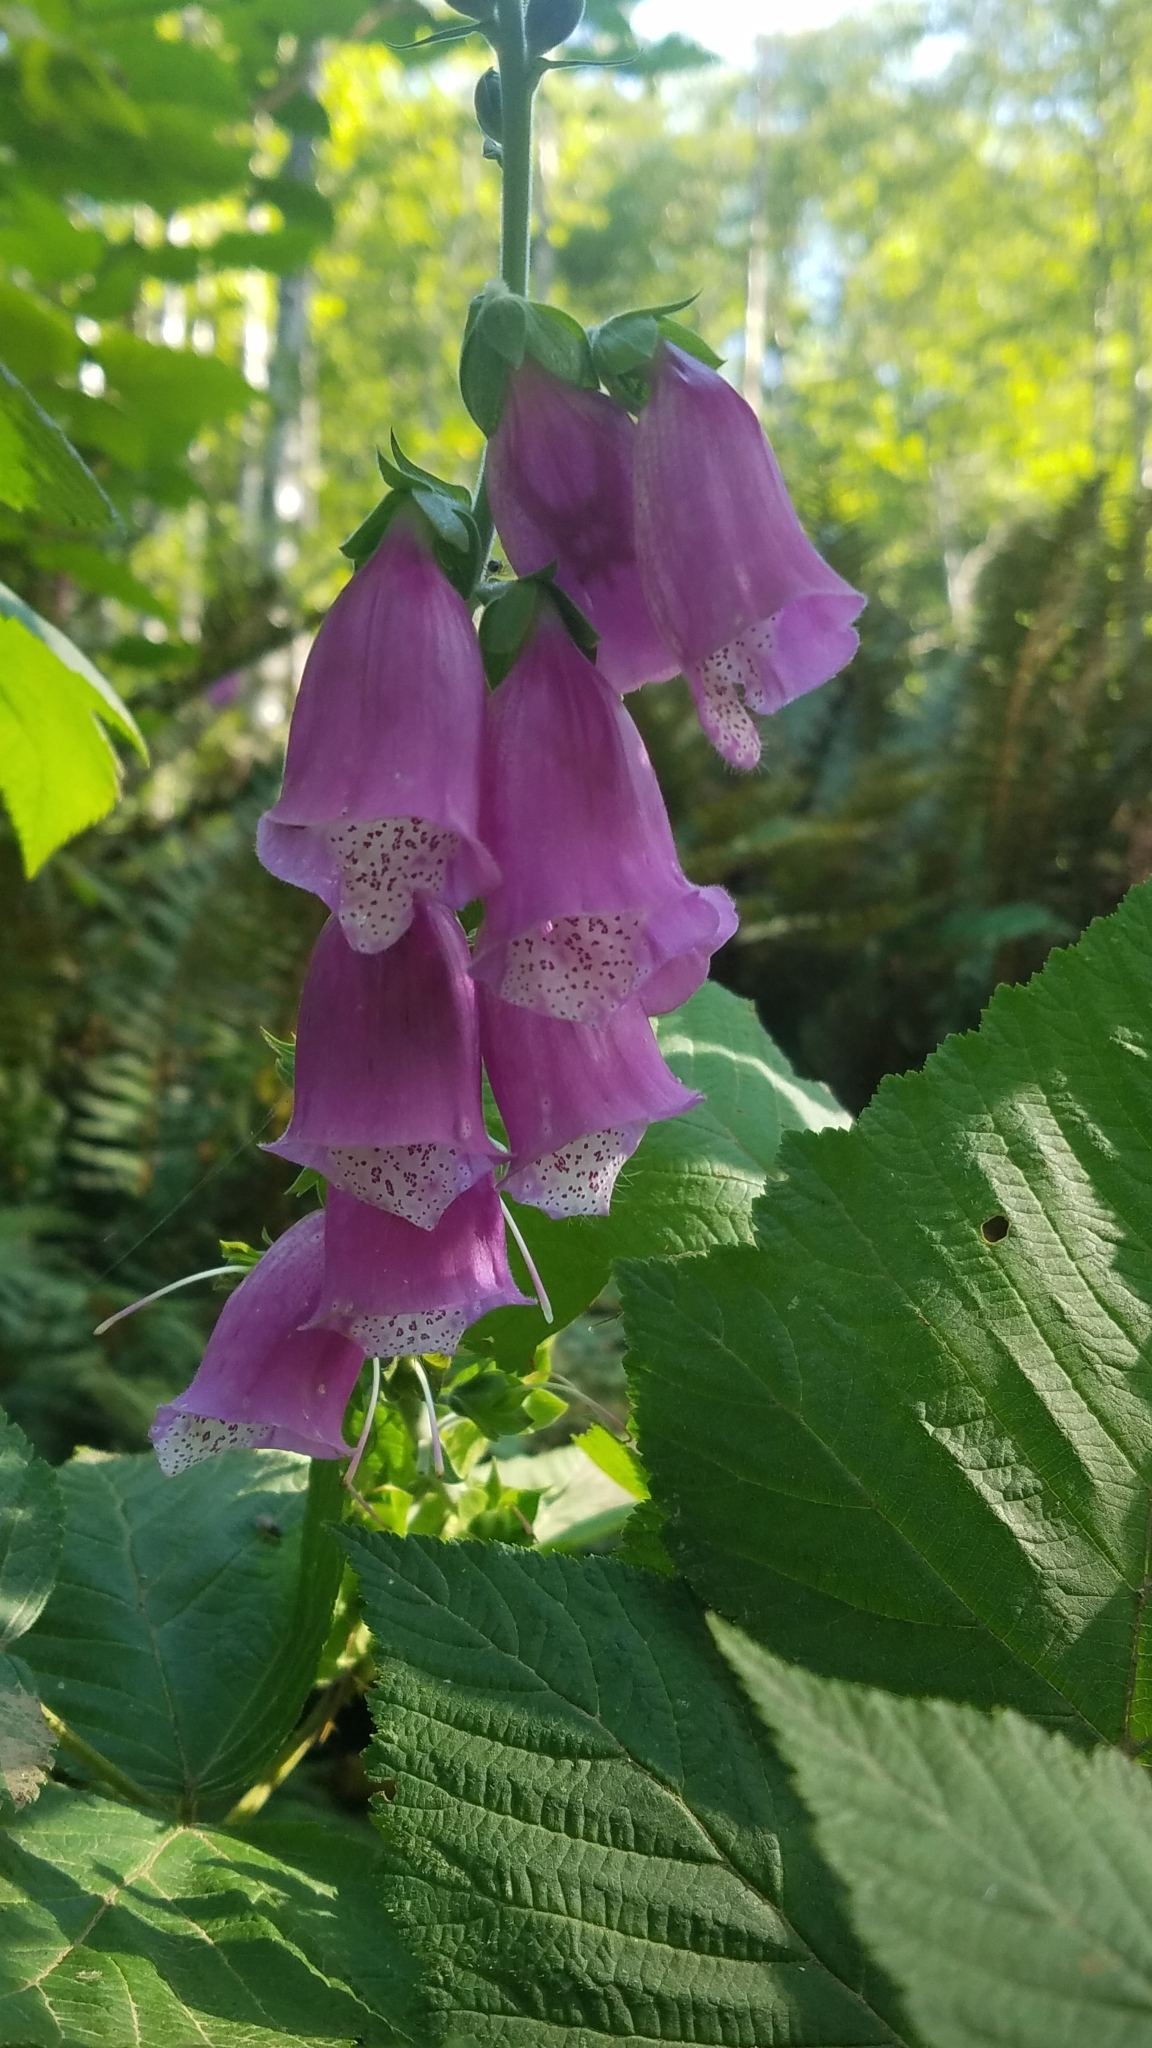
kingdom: Plantae
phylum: Tracheophyta
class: Magnoliopsida
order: Lamiales
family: Plantaginaceae
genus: Digitalis
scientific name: Digitalis purpurea
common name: Foxglove
